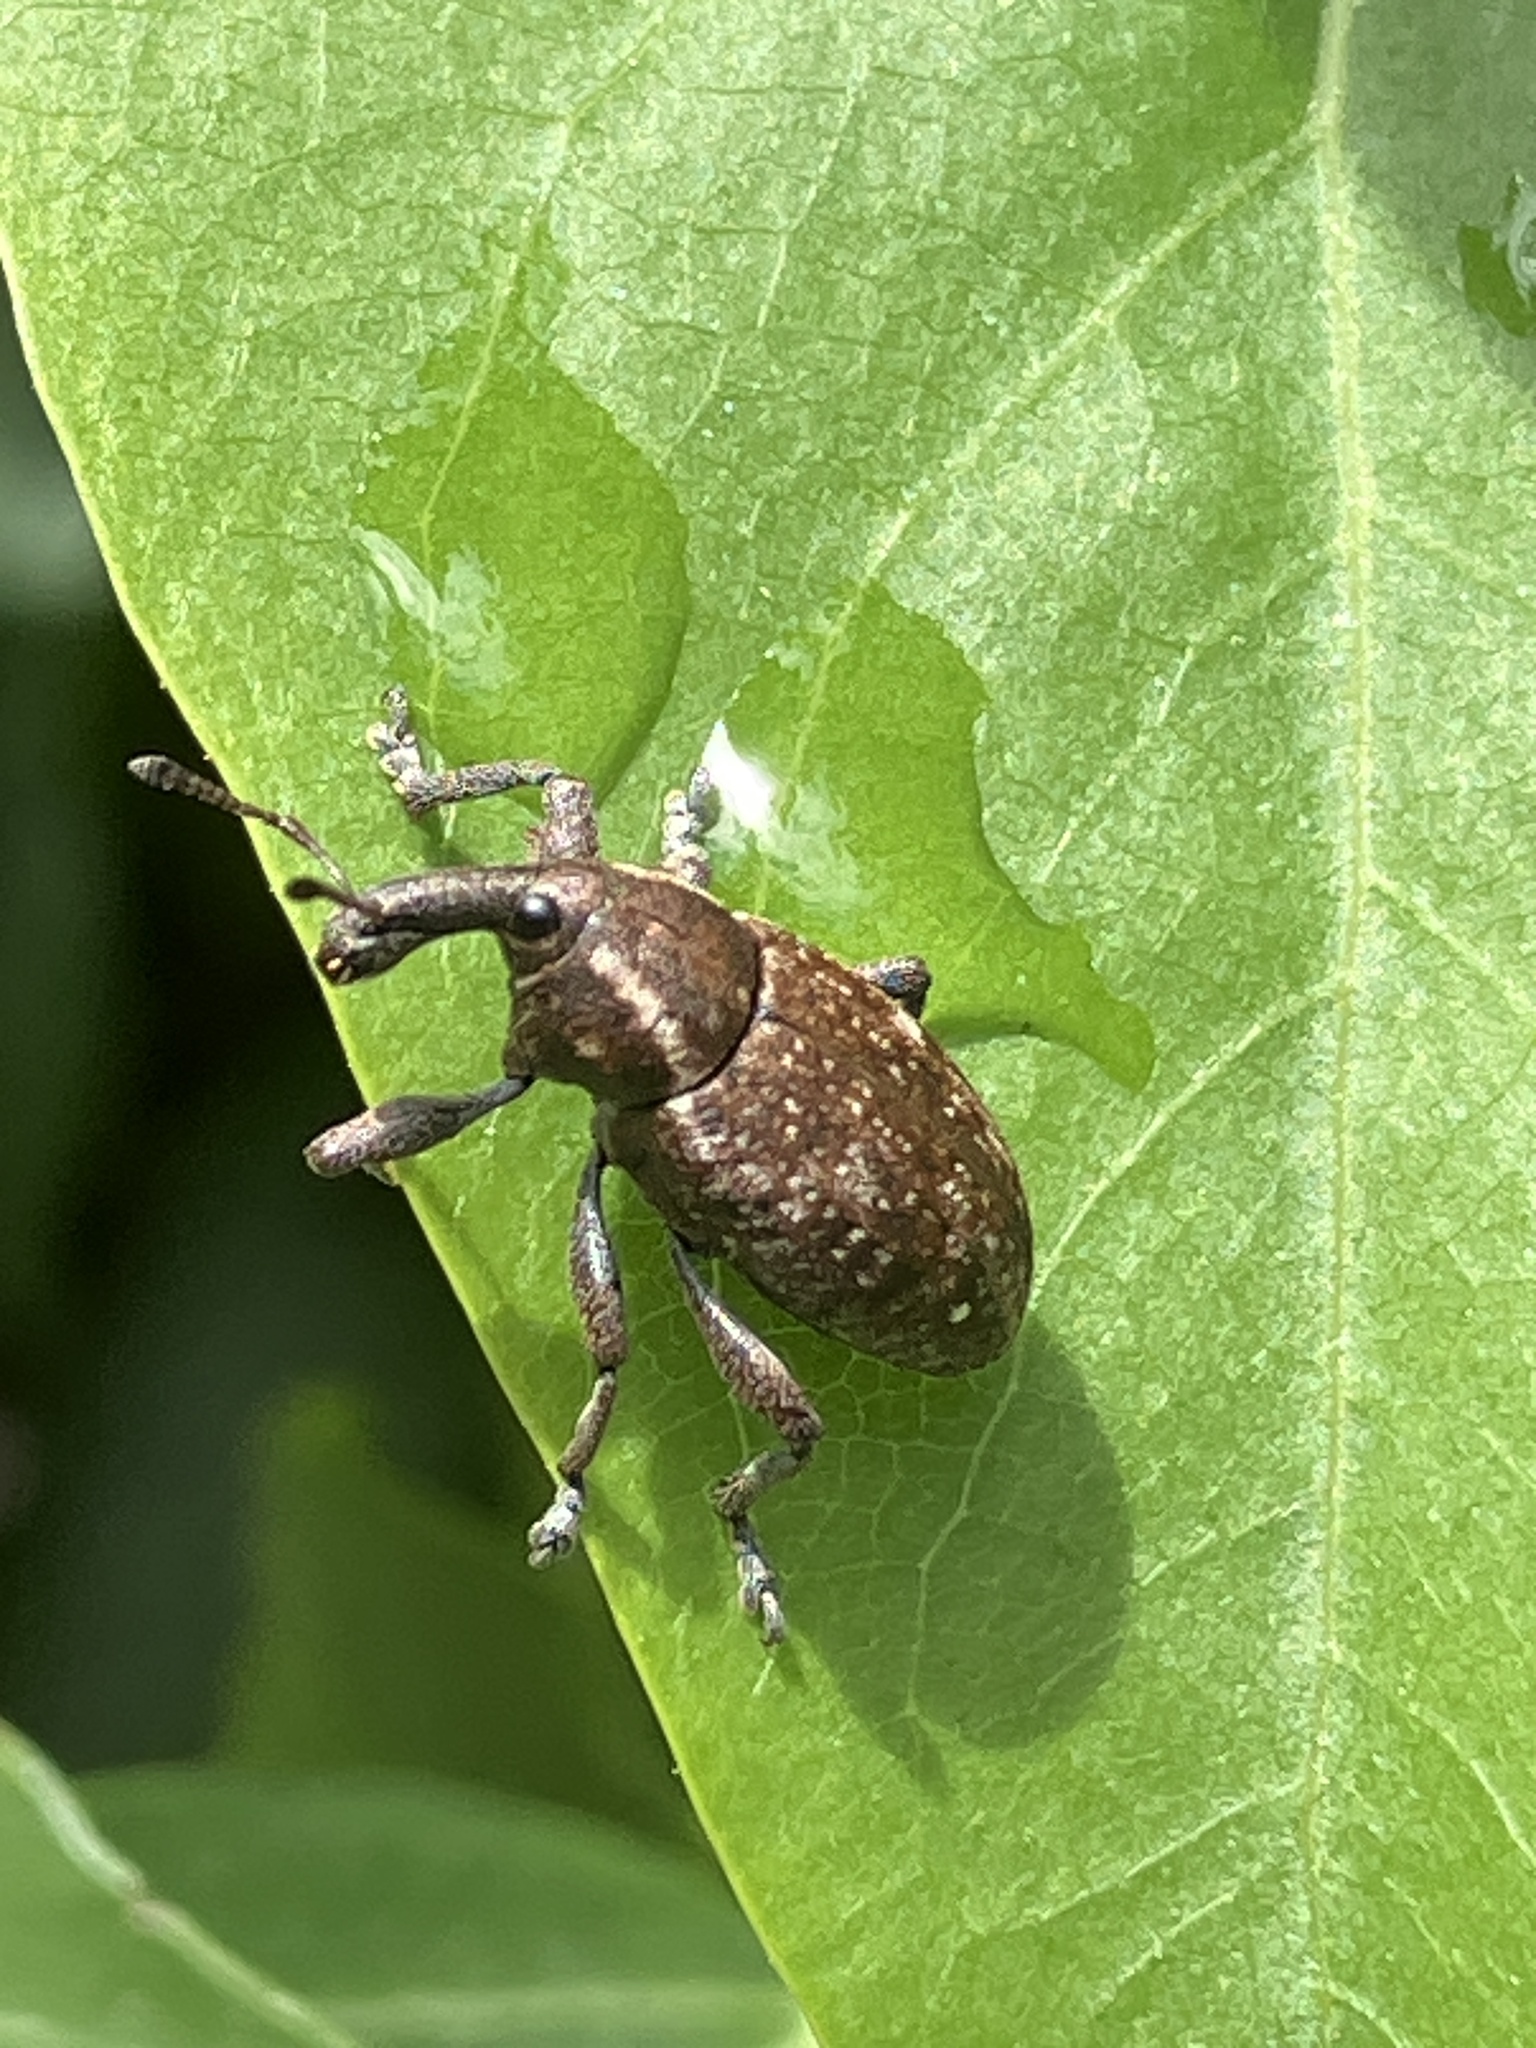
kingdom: Animalia
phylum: Arthropoda
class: Insecta
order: Coleoptera
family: Curculionidae
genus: Lepyrus
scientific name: Lepyrus capucinus
